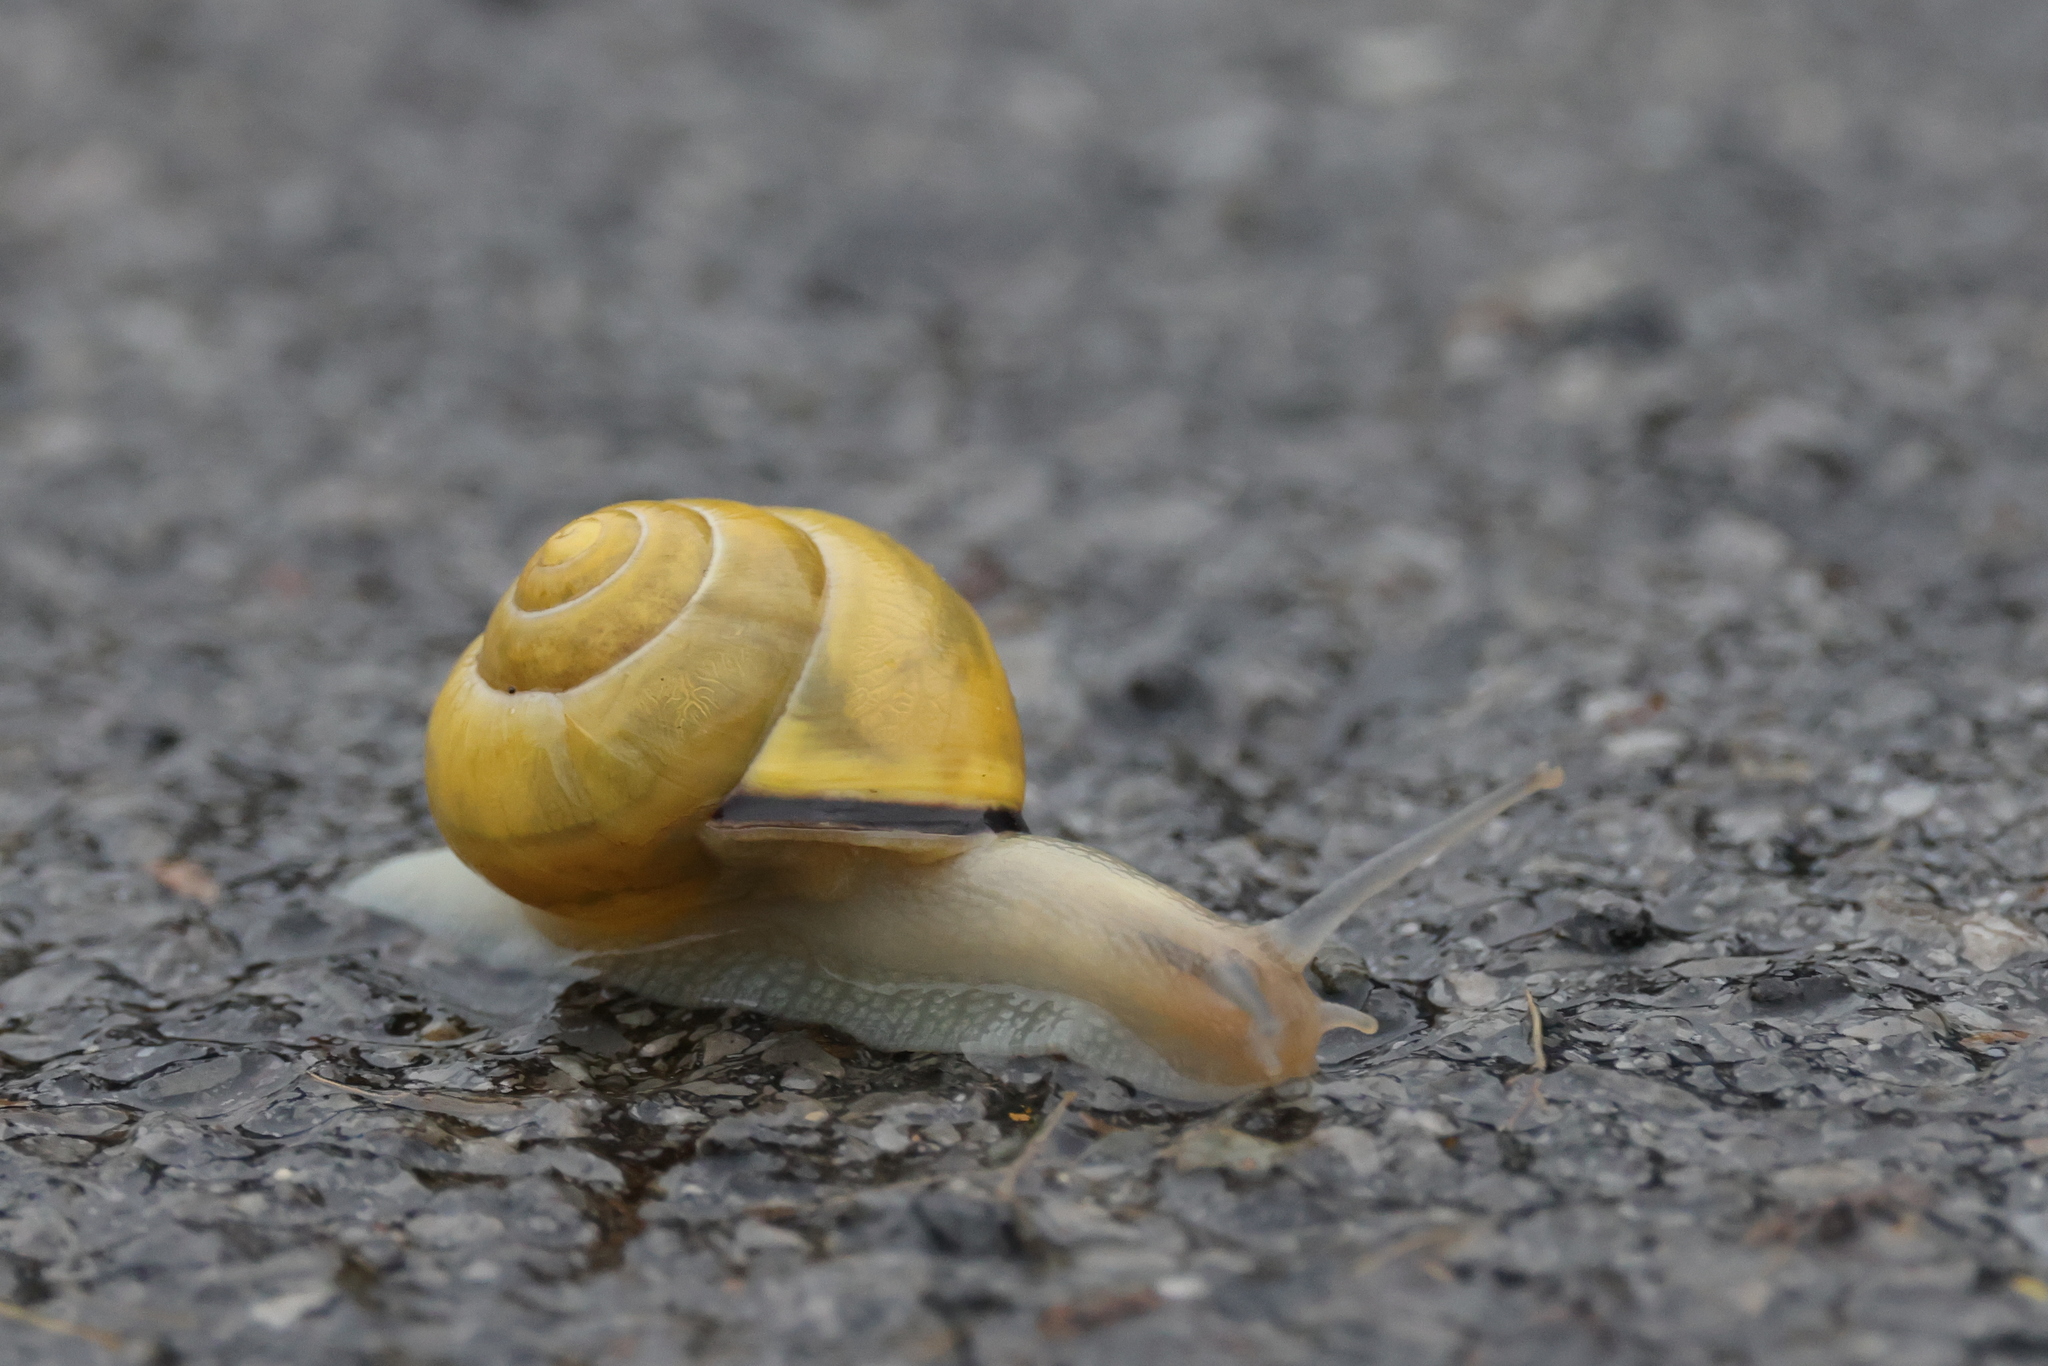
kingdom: Animalia
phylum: Mollusca
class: Gastropoda
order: Stylommatophora
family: Helicidae
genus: Cepaea
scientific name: Cepaea nemoralis
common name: Grovesnail
